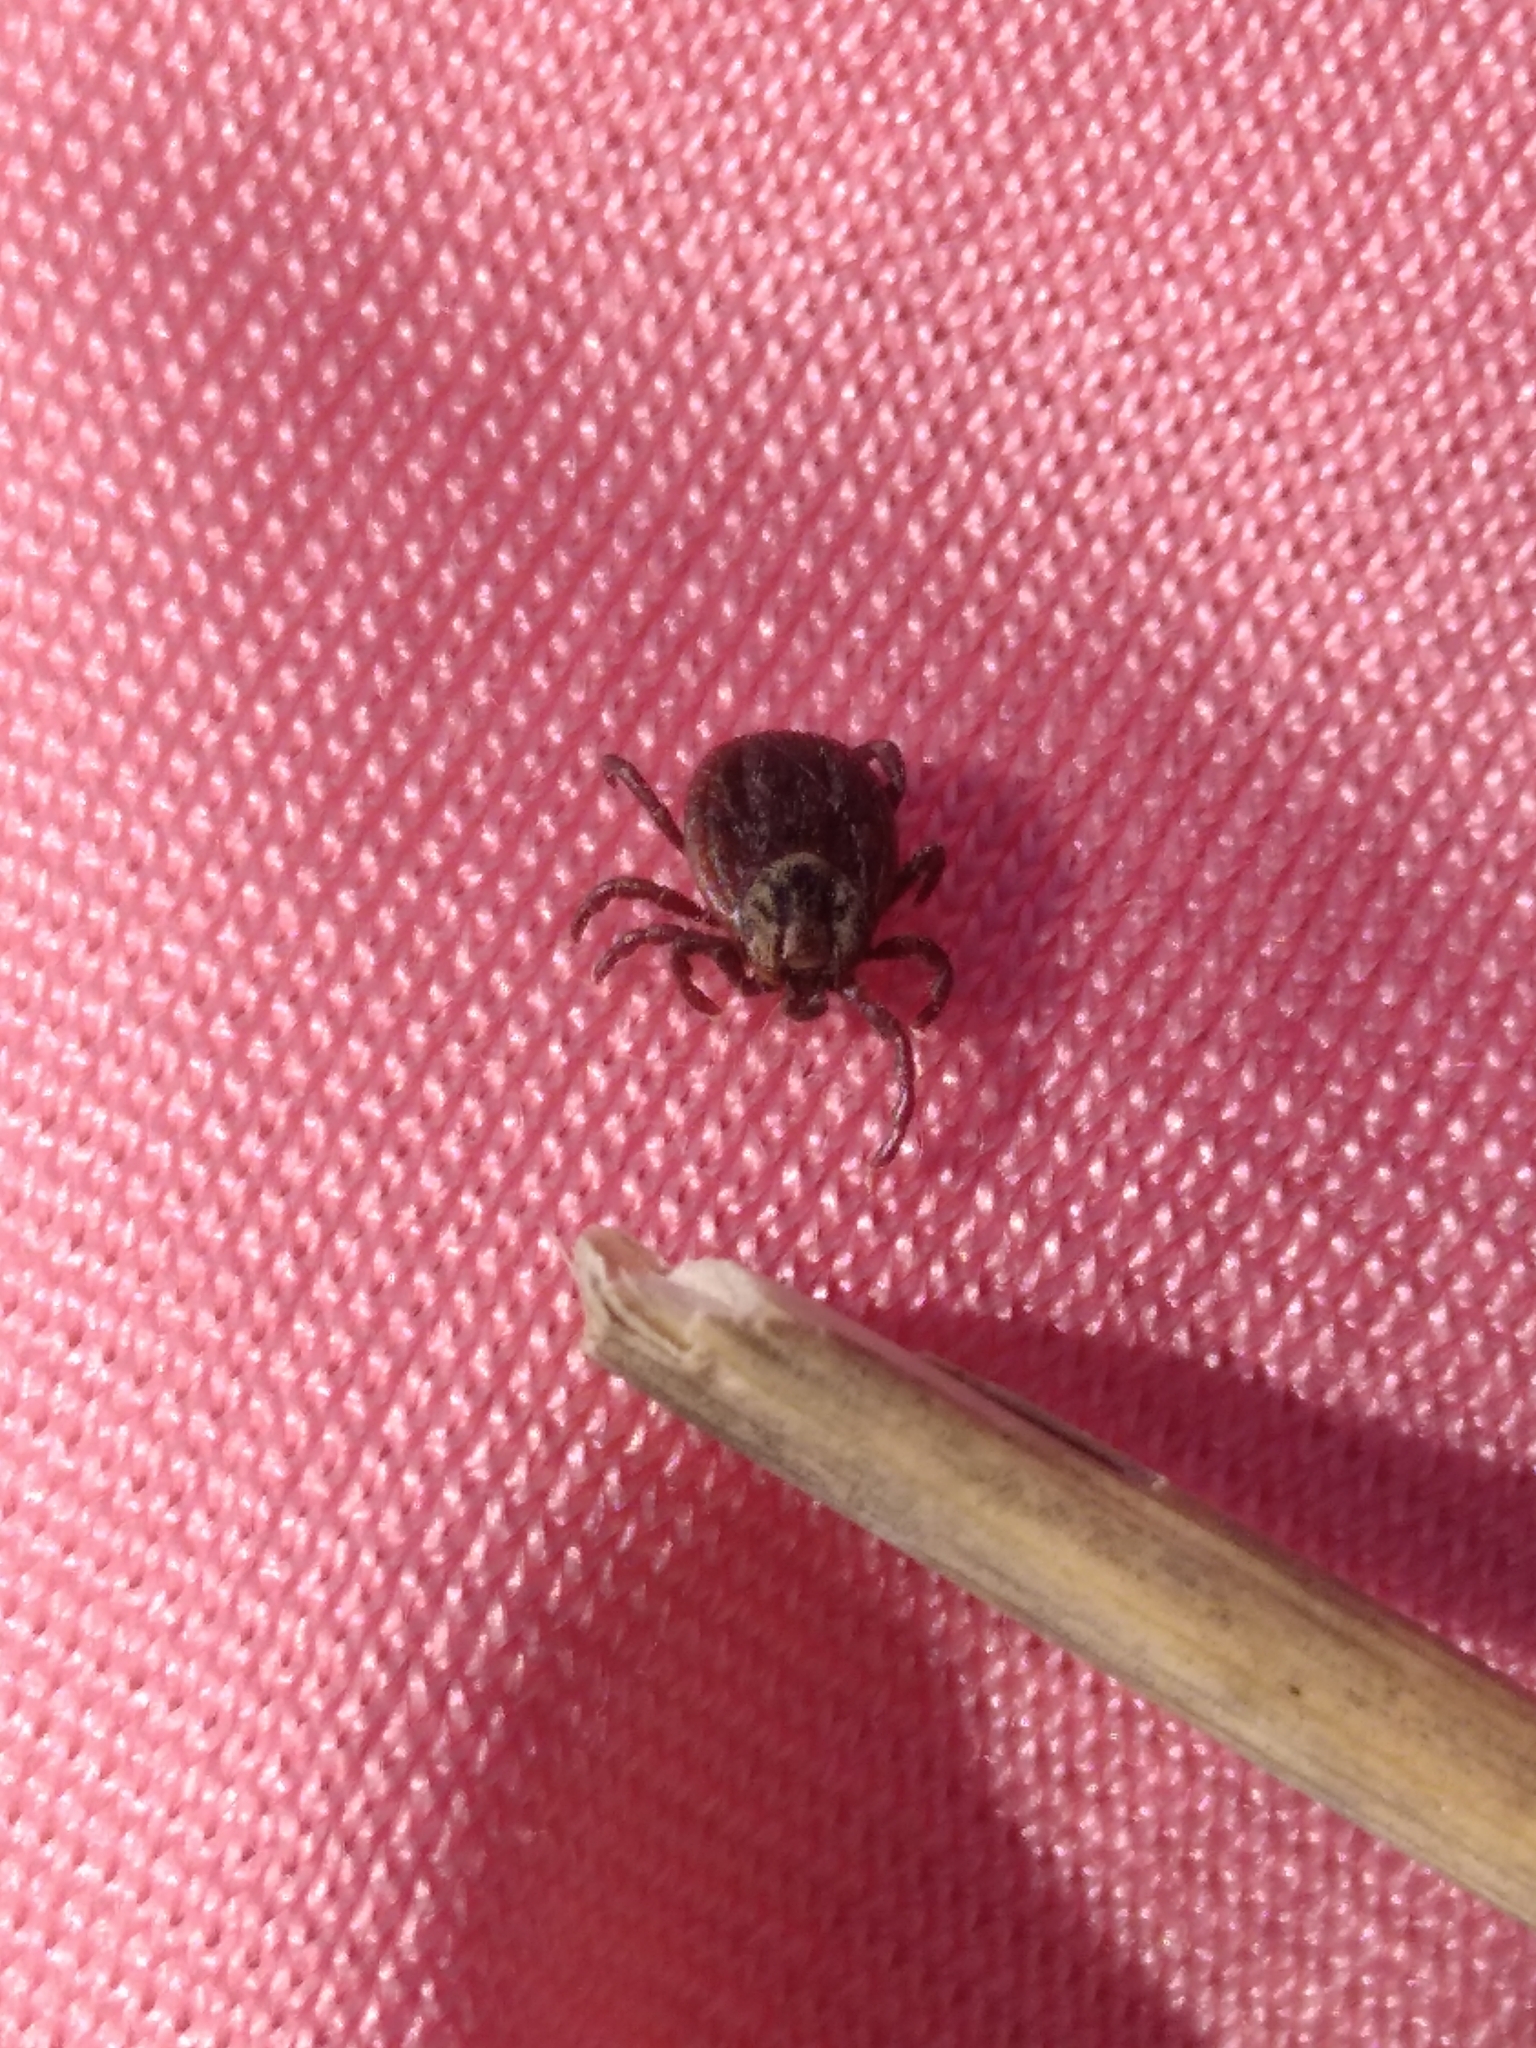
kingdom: Animalia
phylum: Arthropoda
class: Arachnida
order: Ixodida
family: Ixodidae
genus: Dermacentor
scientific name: Dermacentor
